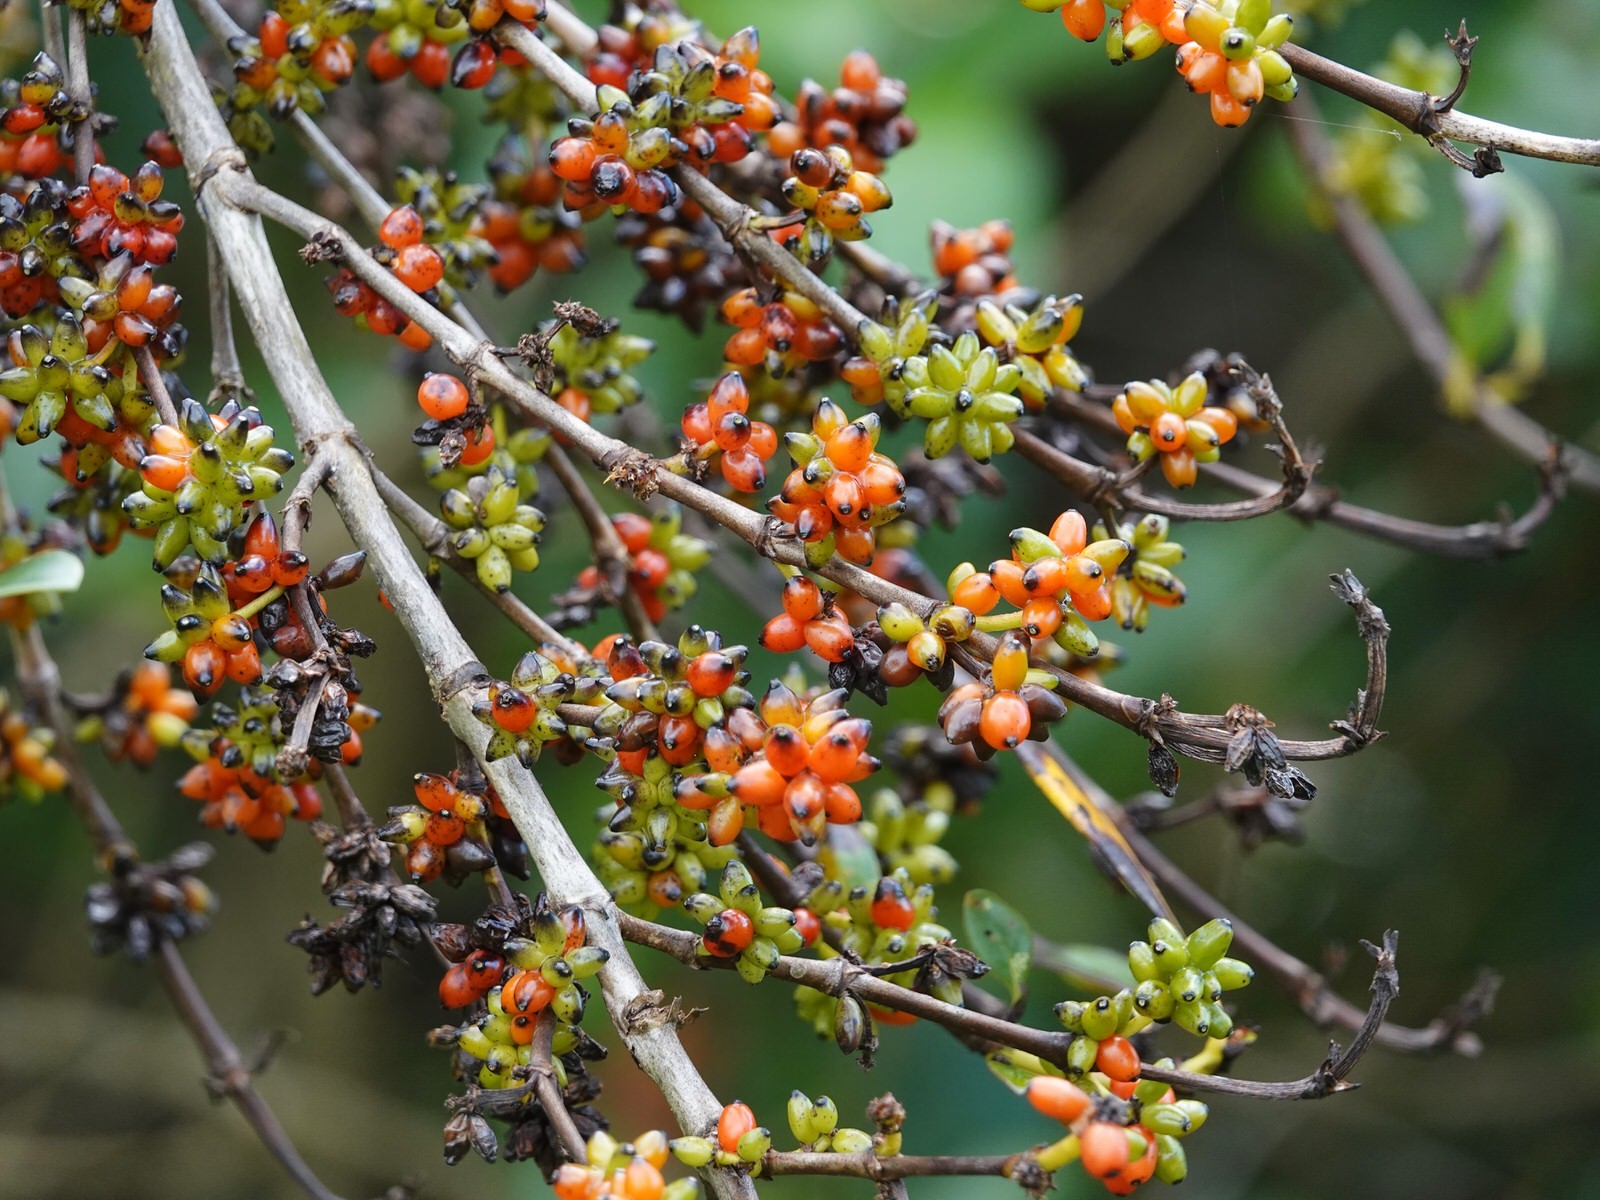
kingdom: Plantae
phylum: Tracheophyta
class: Magnoliopsida
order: Gentianales
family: Rubiaceae
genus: Coprosma
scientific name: Coprosma robusta
